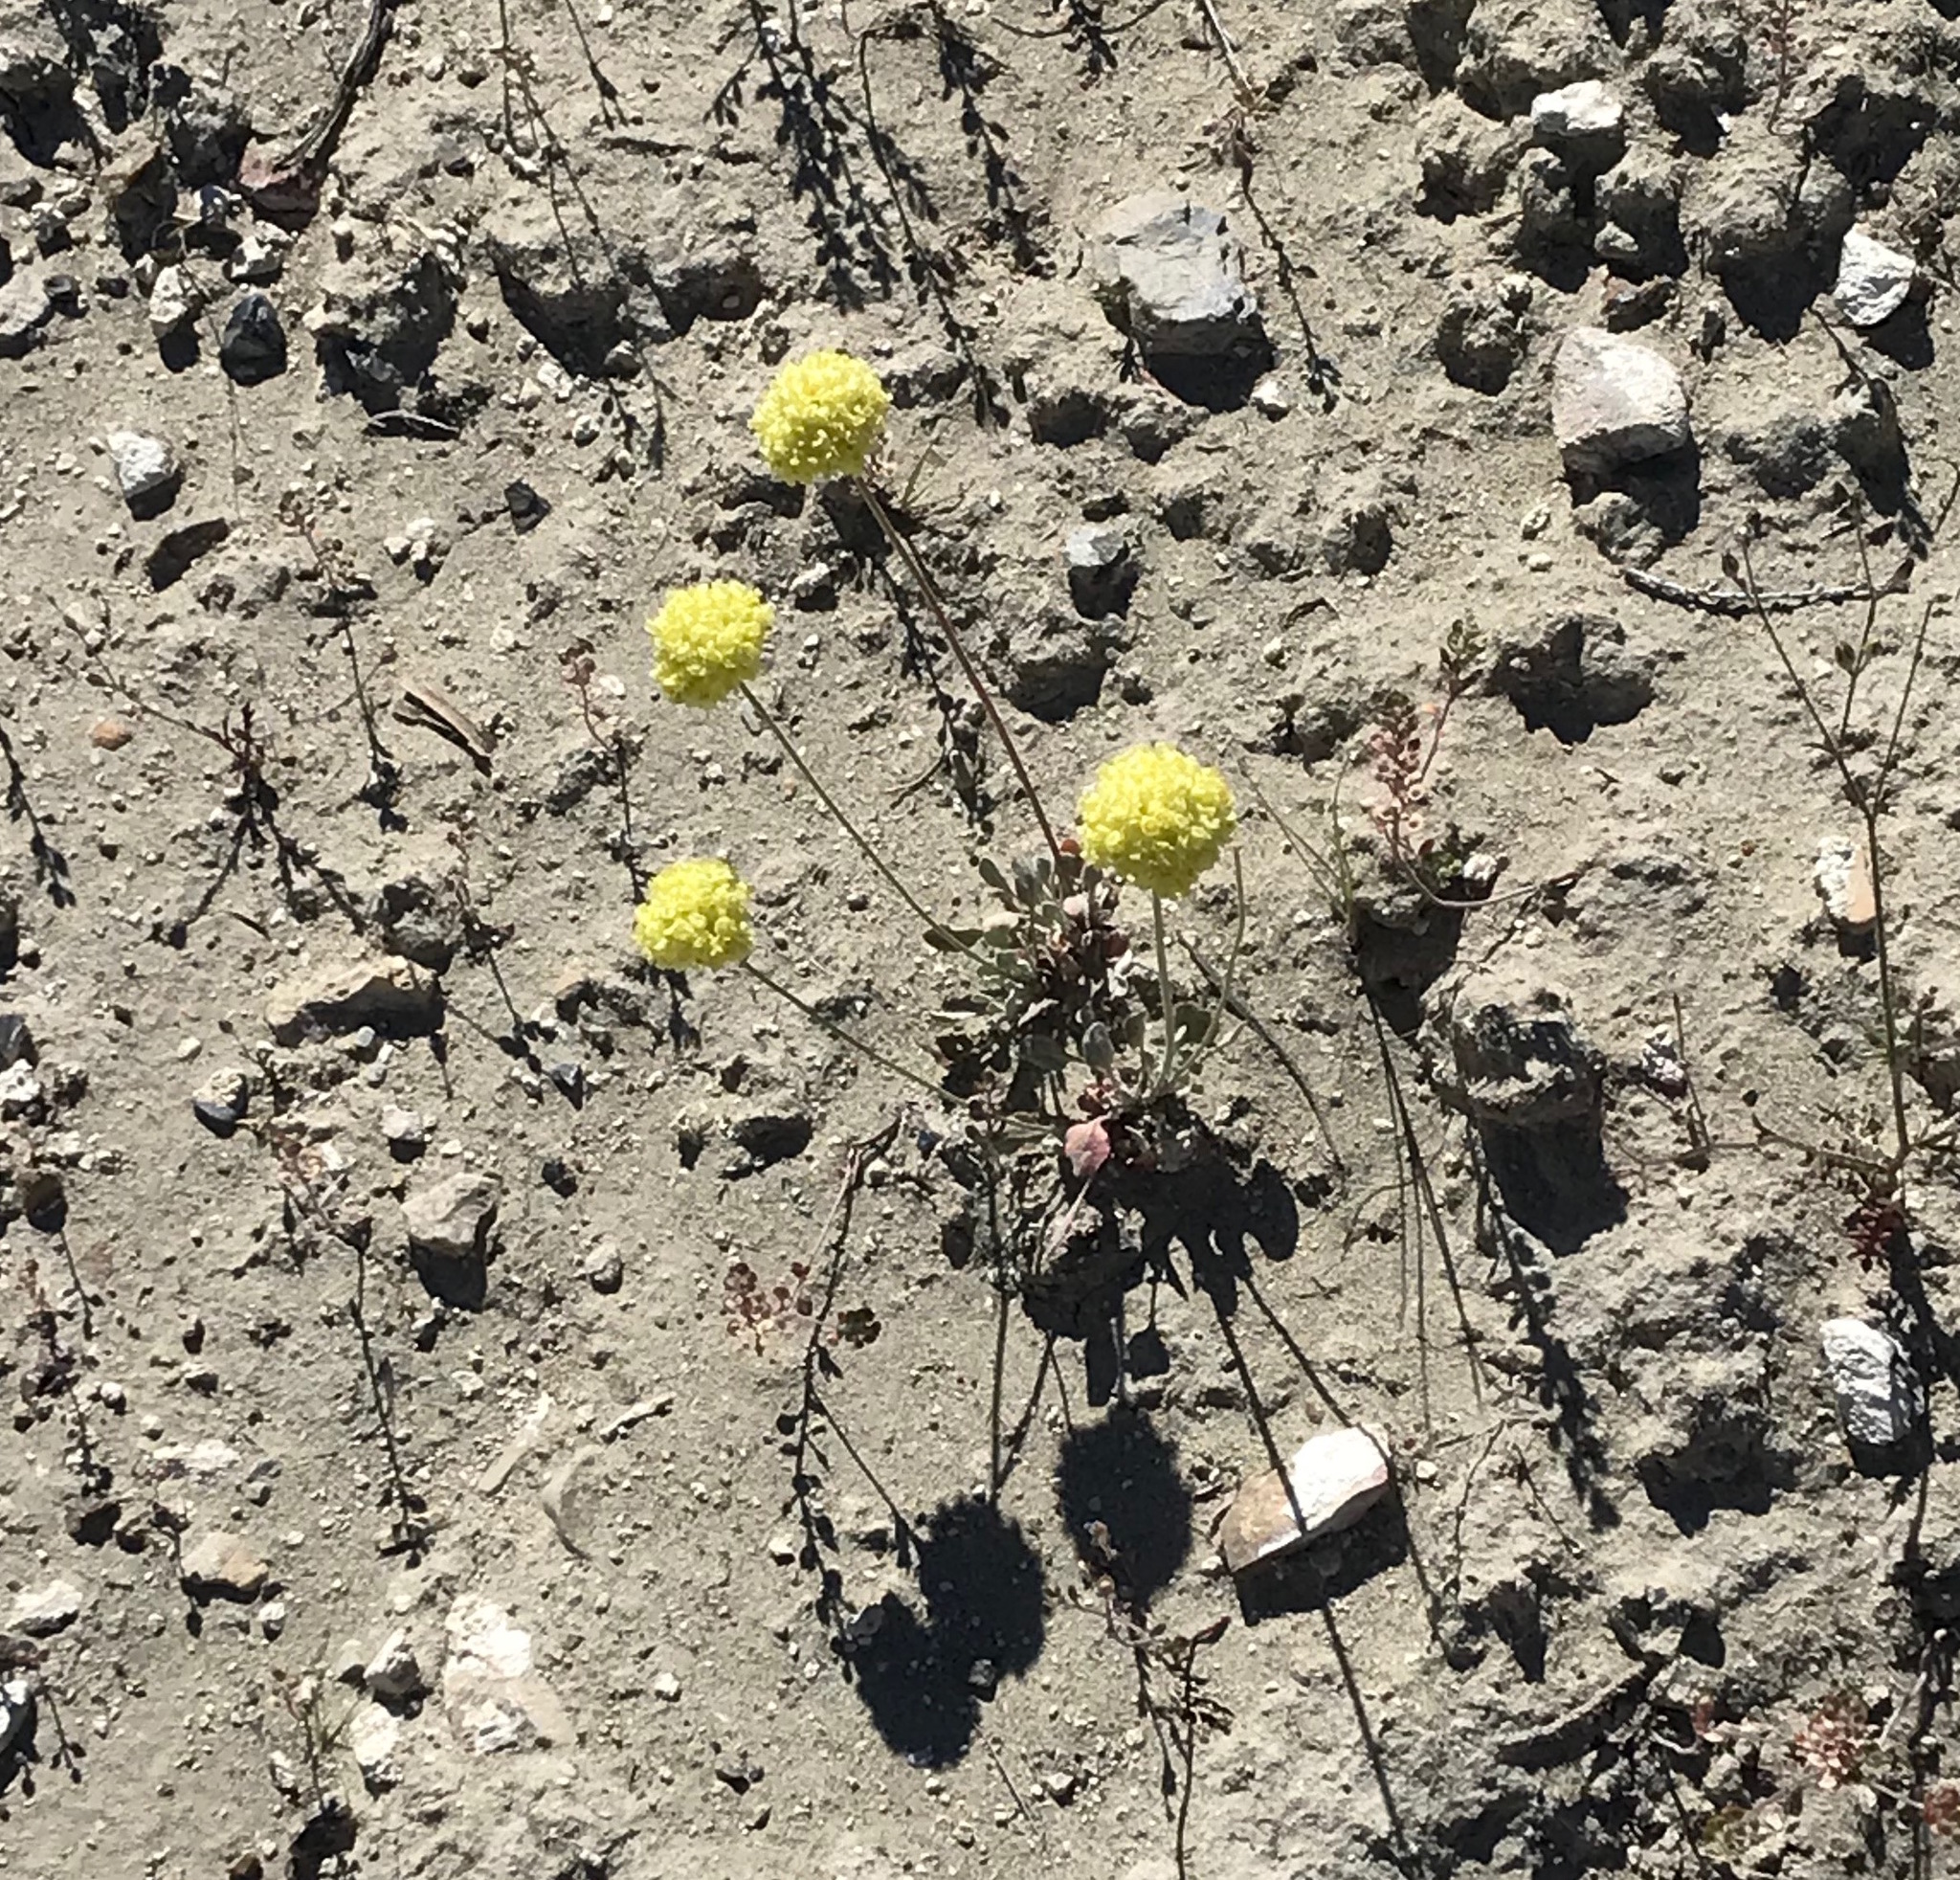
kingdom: Plantae
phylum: Tracheophyta
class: Magnoliopsida
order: Caryophyllales
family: Polygonaceae
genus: Eriogonum
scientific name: Eriogonum ovalifolium
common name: Cushion buckwheat
